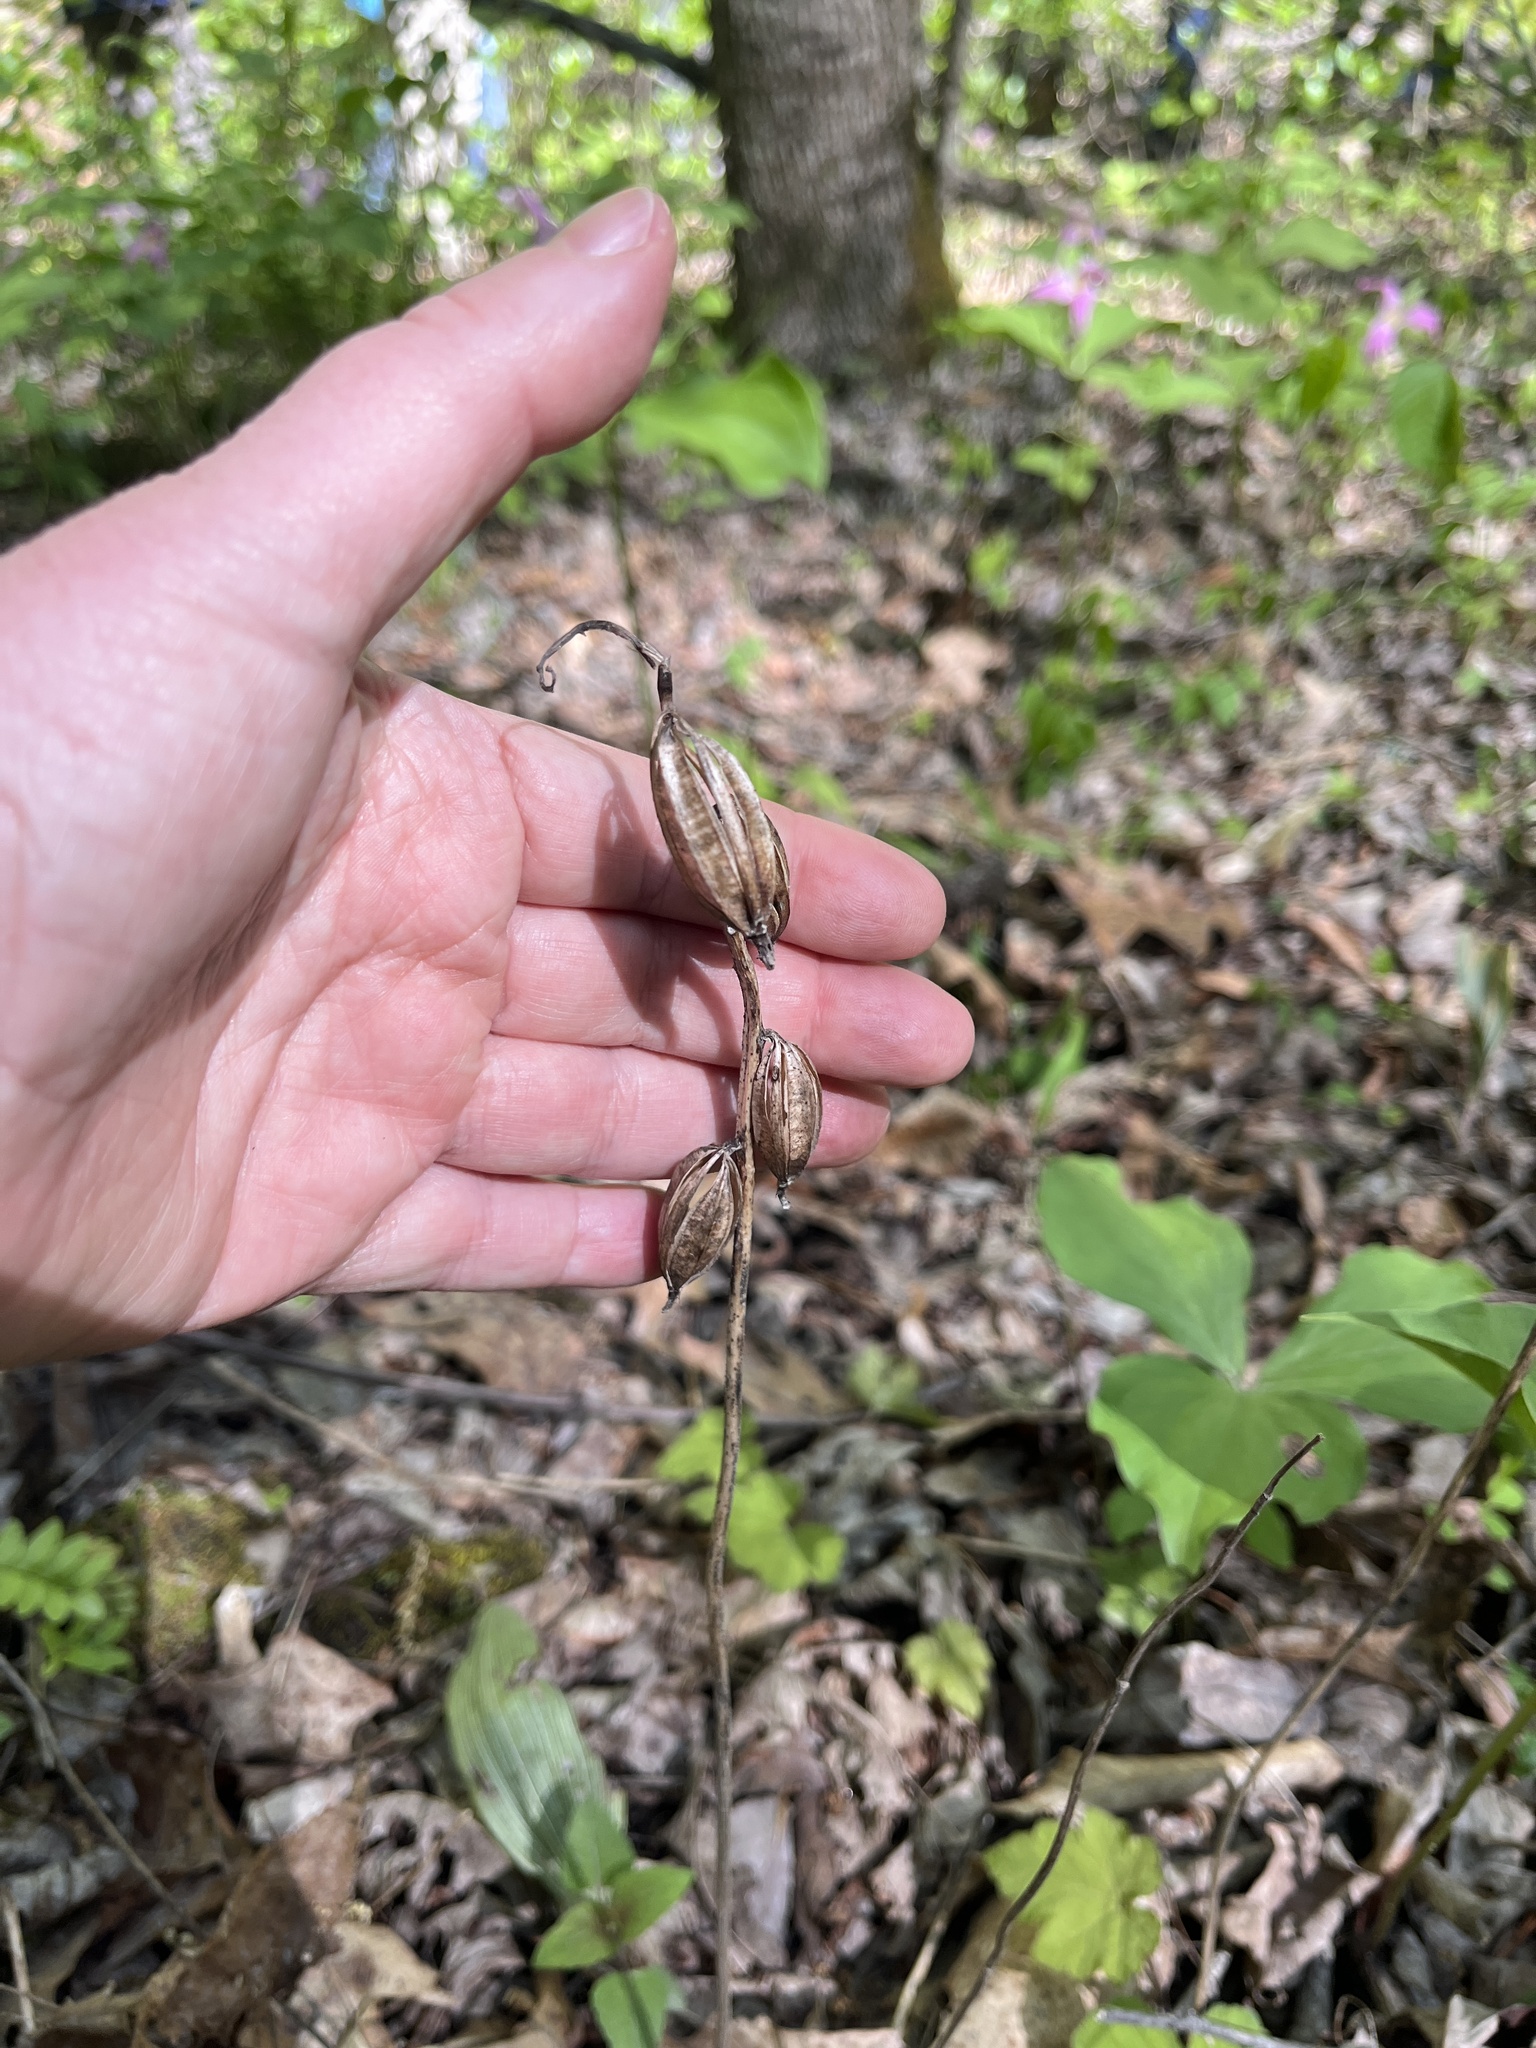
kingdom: Plantae
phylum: Tracheophyta
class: Liliopsida
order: Asparagales
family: Orchidaceae
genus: Aplectrum
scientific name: Aplectrum hyemale
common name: Adam-and-eve
